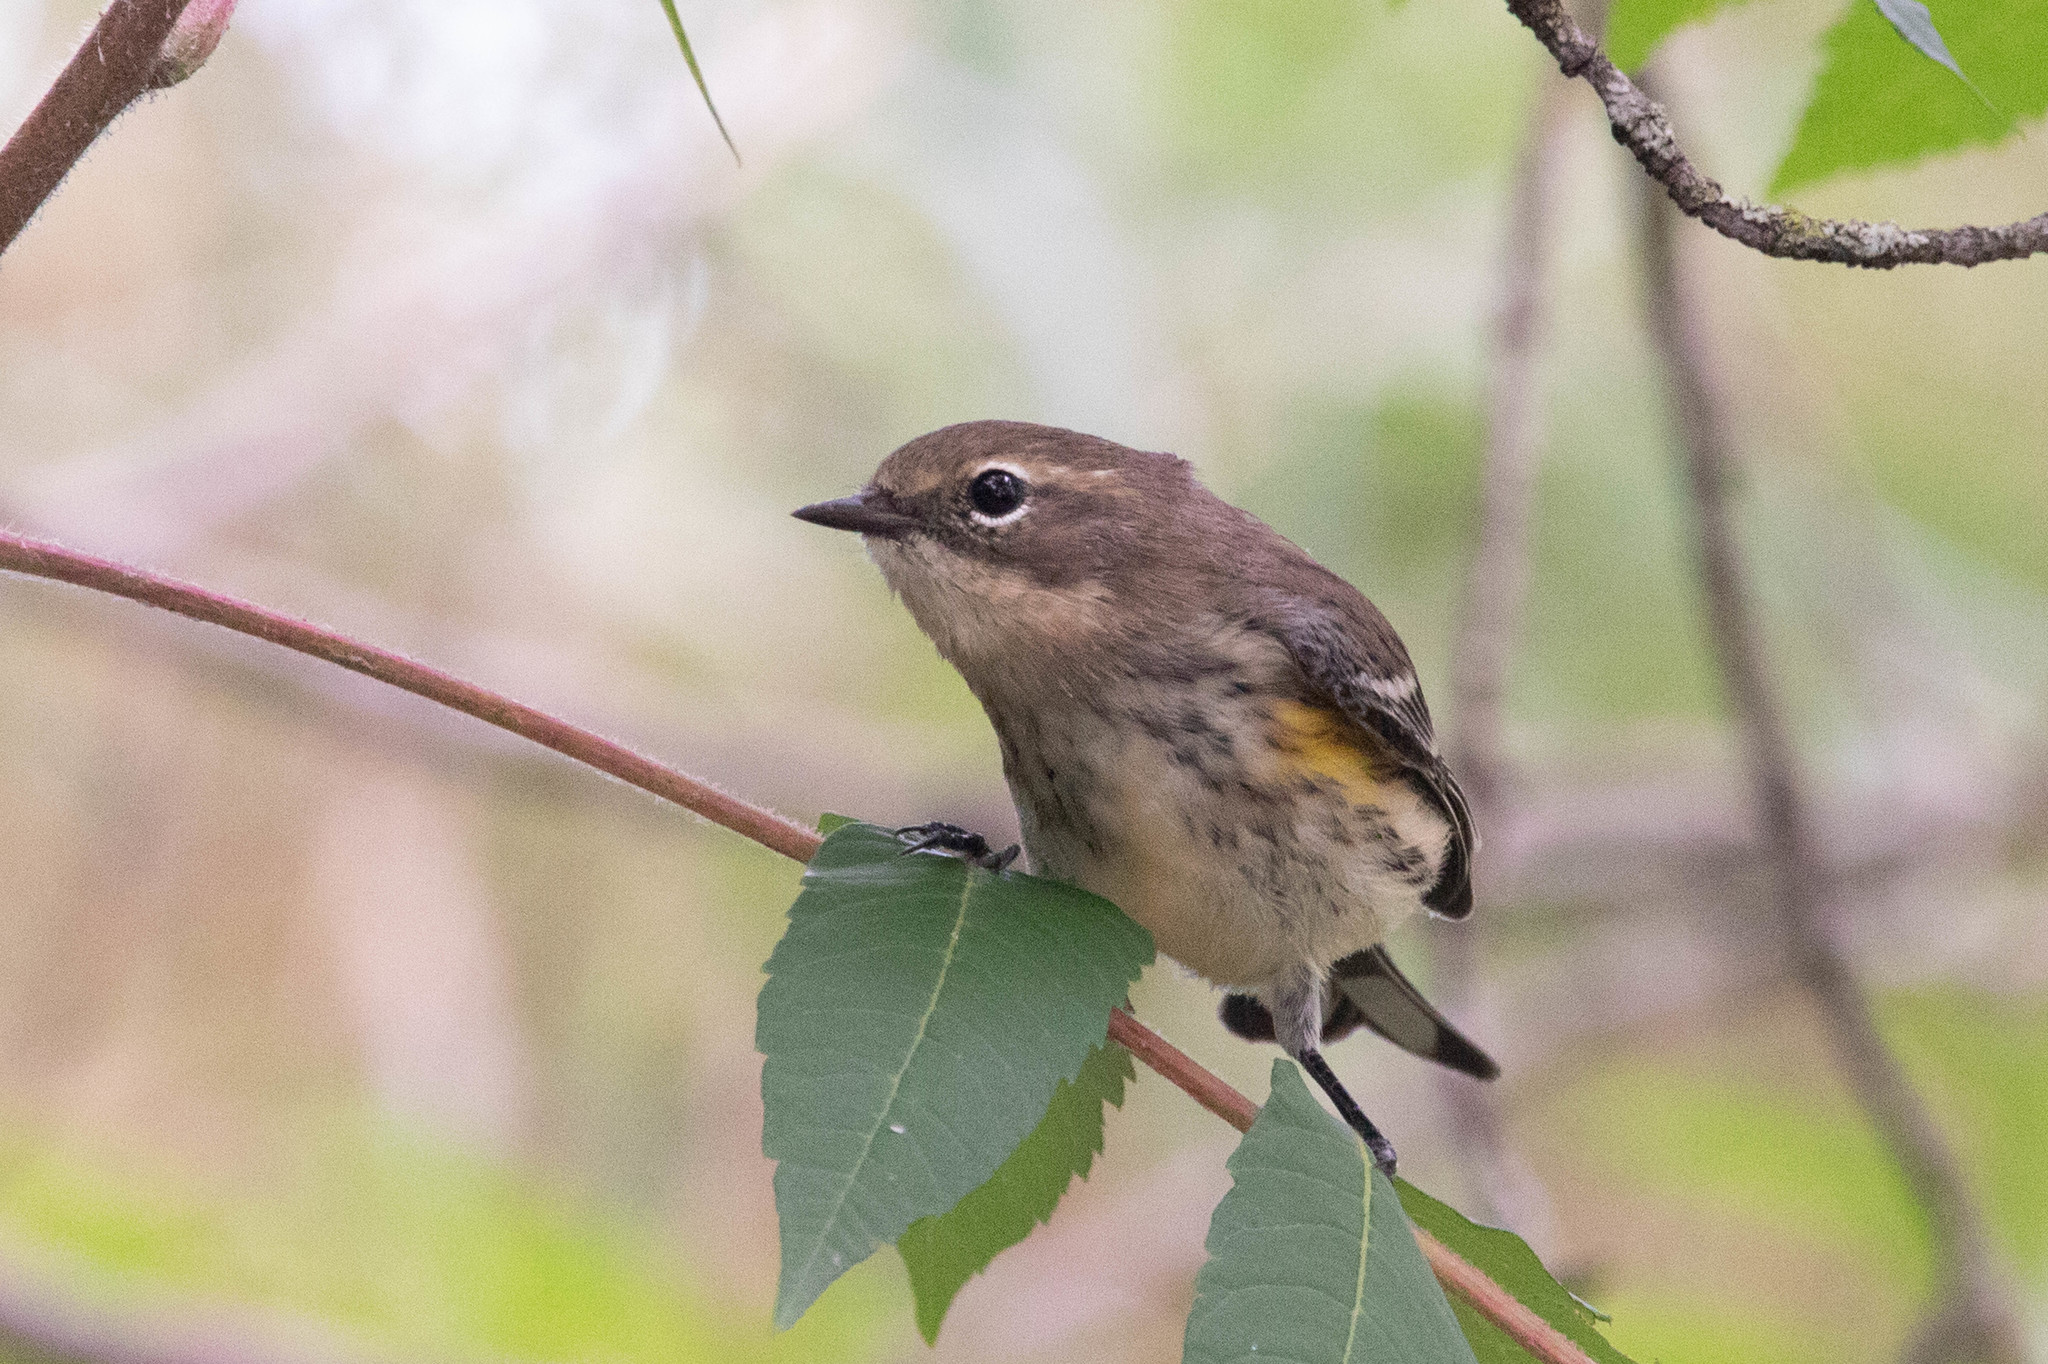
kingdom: Animalia
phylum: Chordata
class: Aves
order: Passeriformes
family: Parulidae
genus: Setophaga
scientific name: Setophaga coronata
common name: Myrtle warbler
